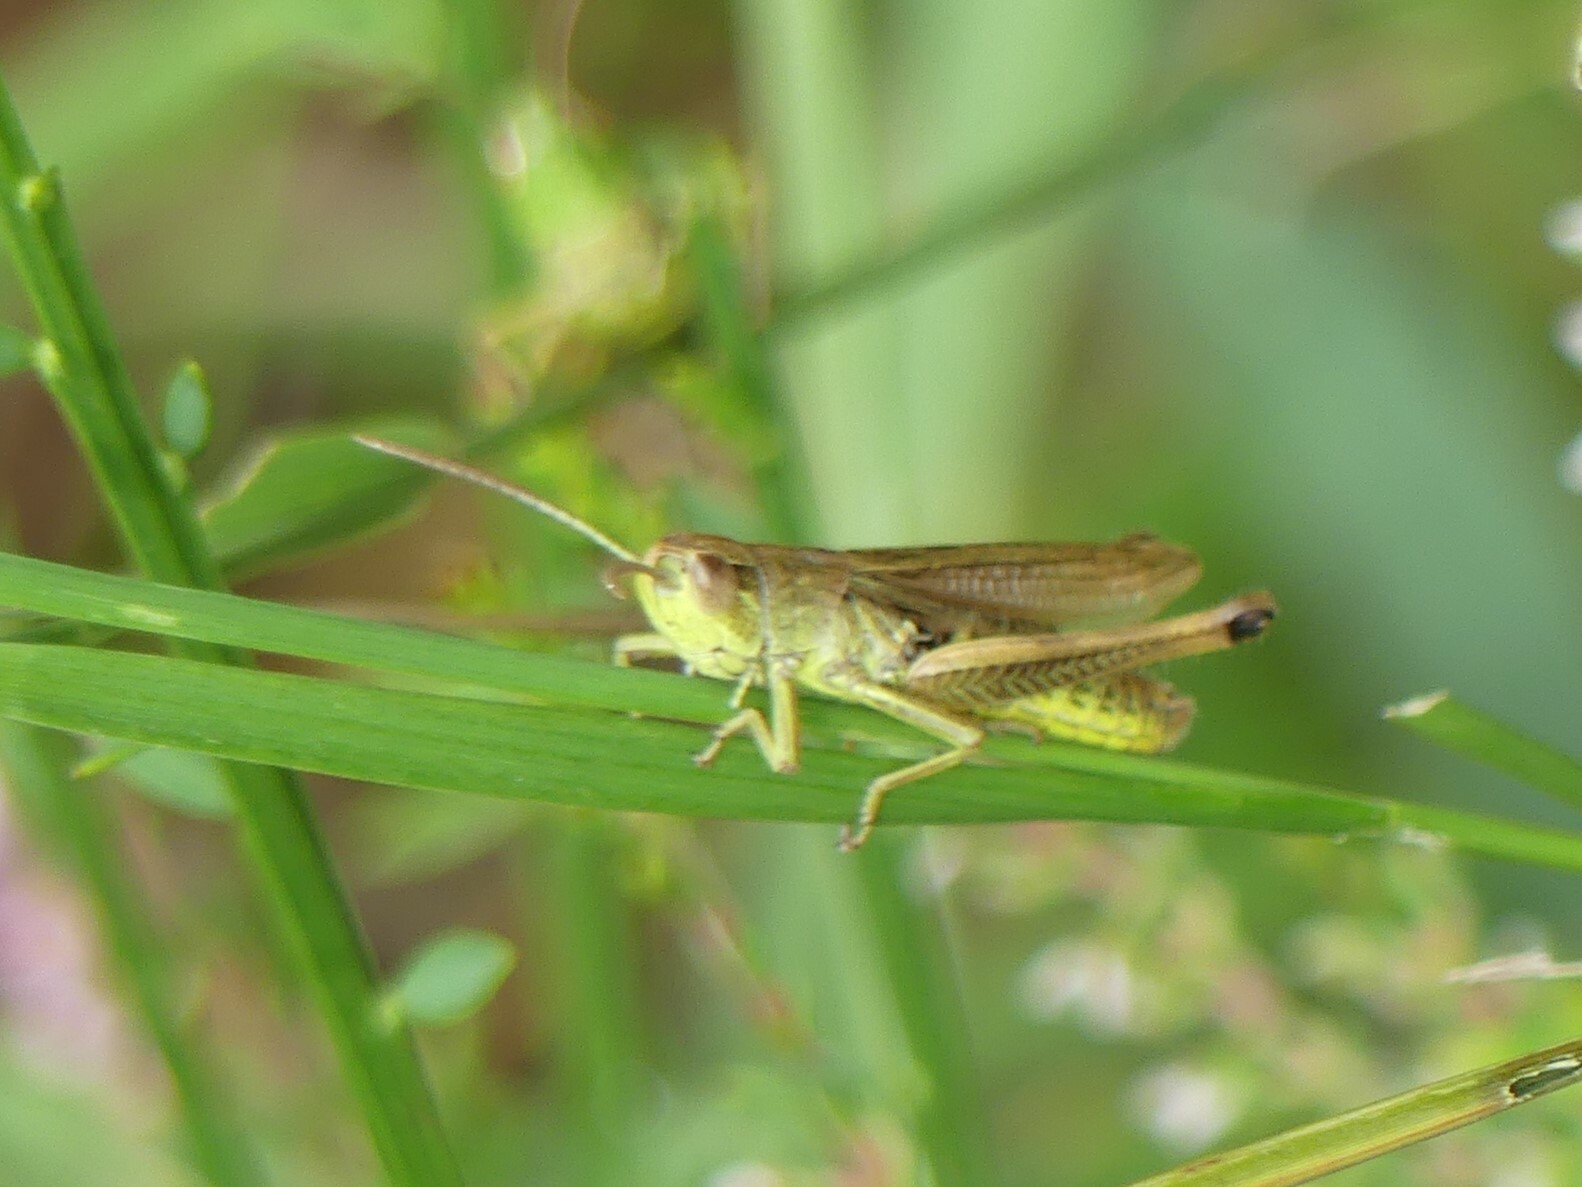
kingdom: Animalia
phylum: Arthropoda
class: Insecta
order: Orthoptera
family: Acrididae
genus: Pseudochorthippus
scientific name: Pseudochorthippus parallelus
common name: Meadow grasshopper
